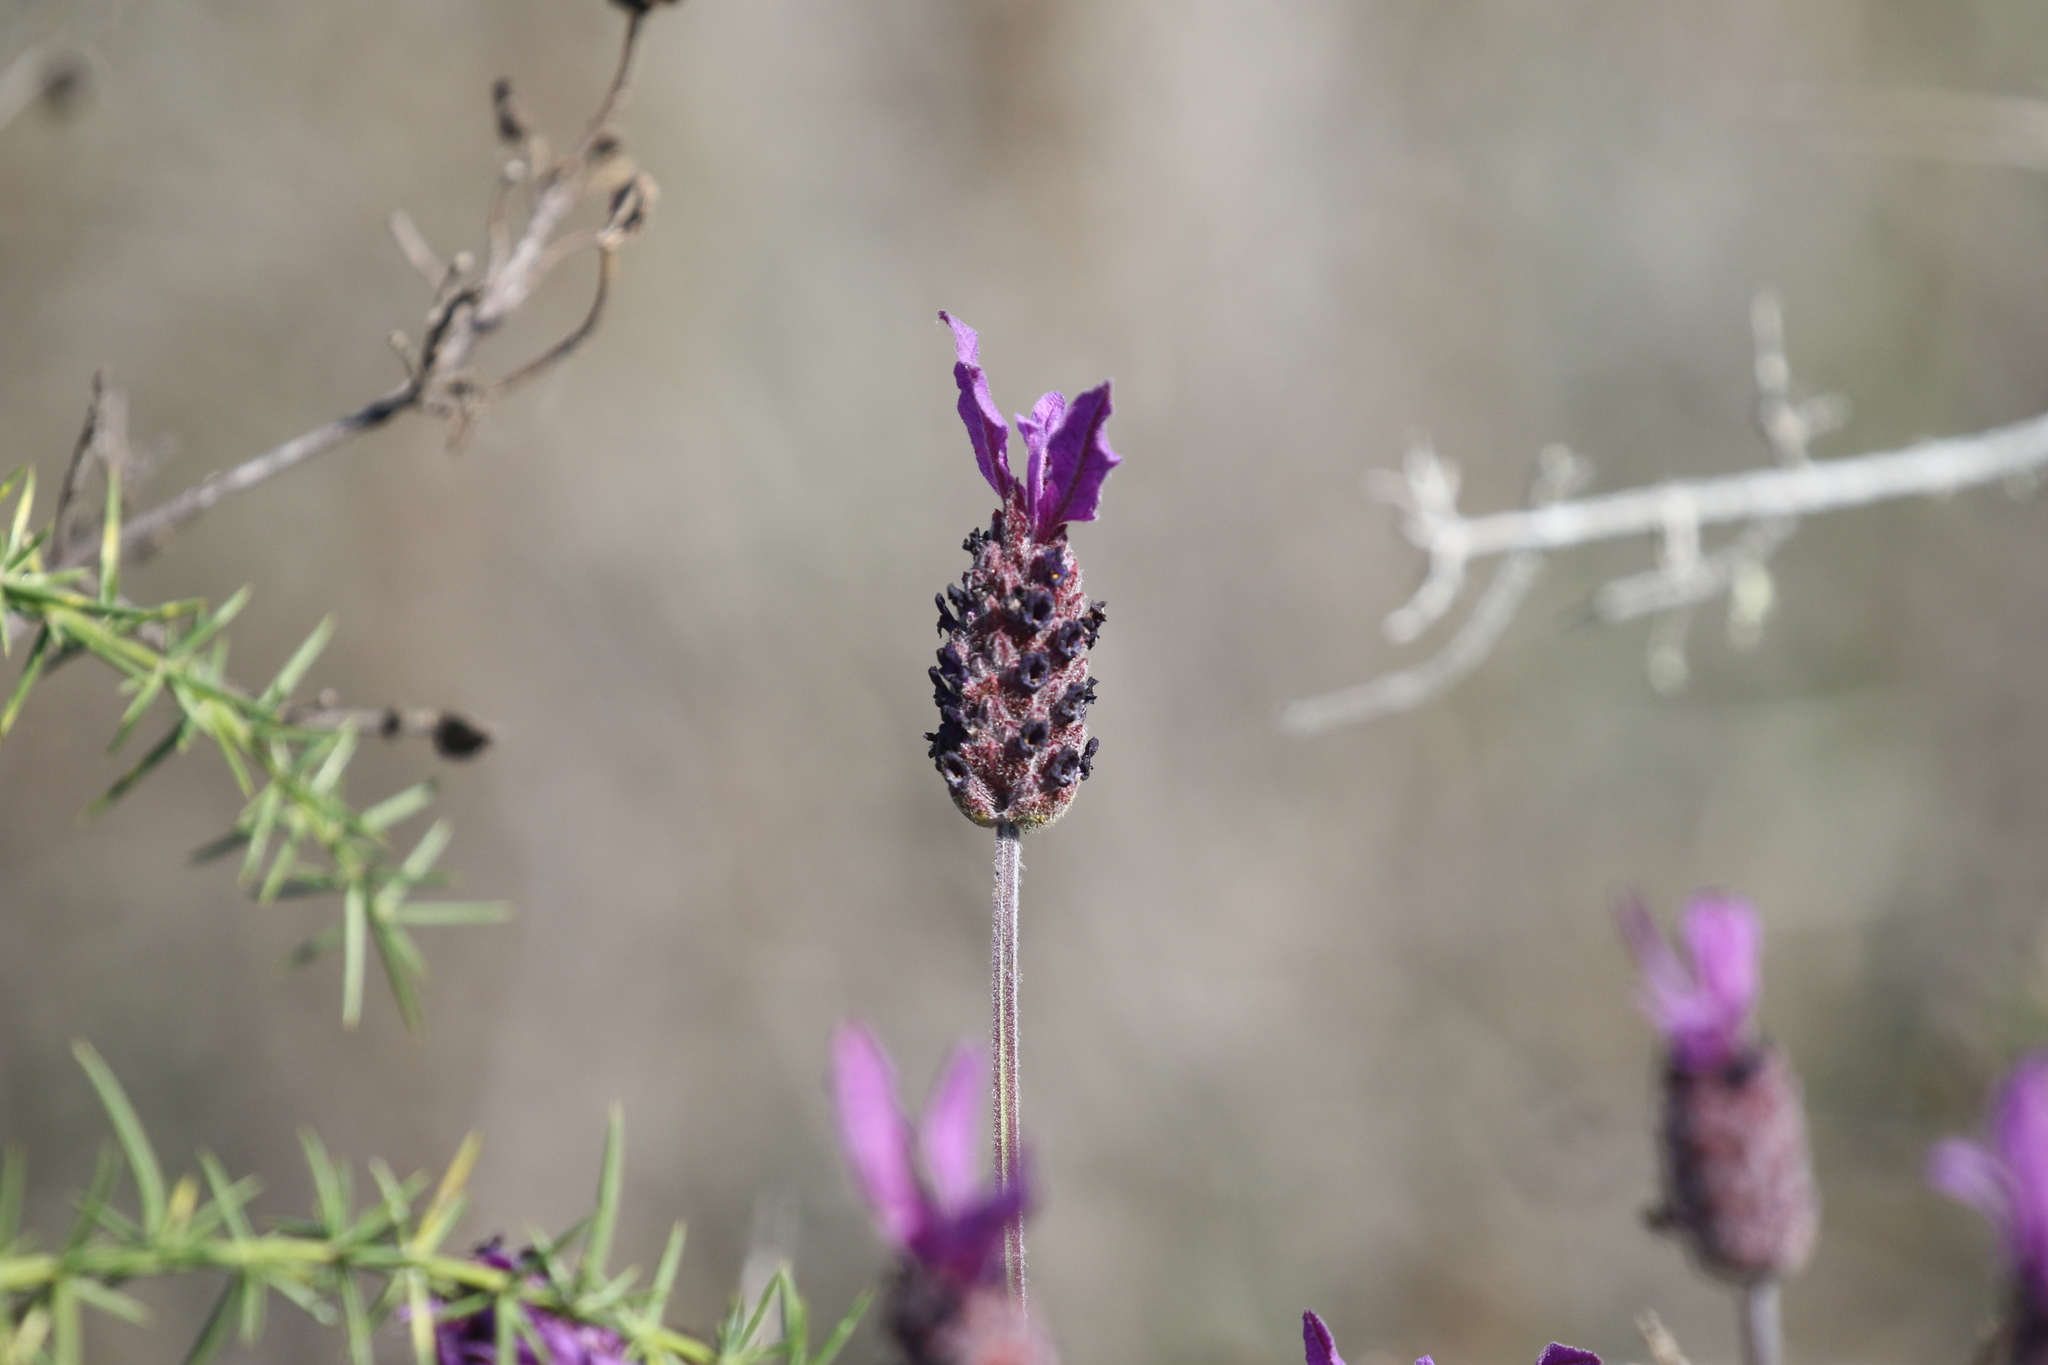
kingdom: Plantae
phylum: Tracheophyta
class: Magnoliopsida
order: Lamiales
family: Lamiaceae
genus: Lavandula
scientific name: Lavandula pedunculata
